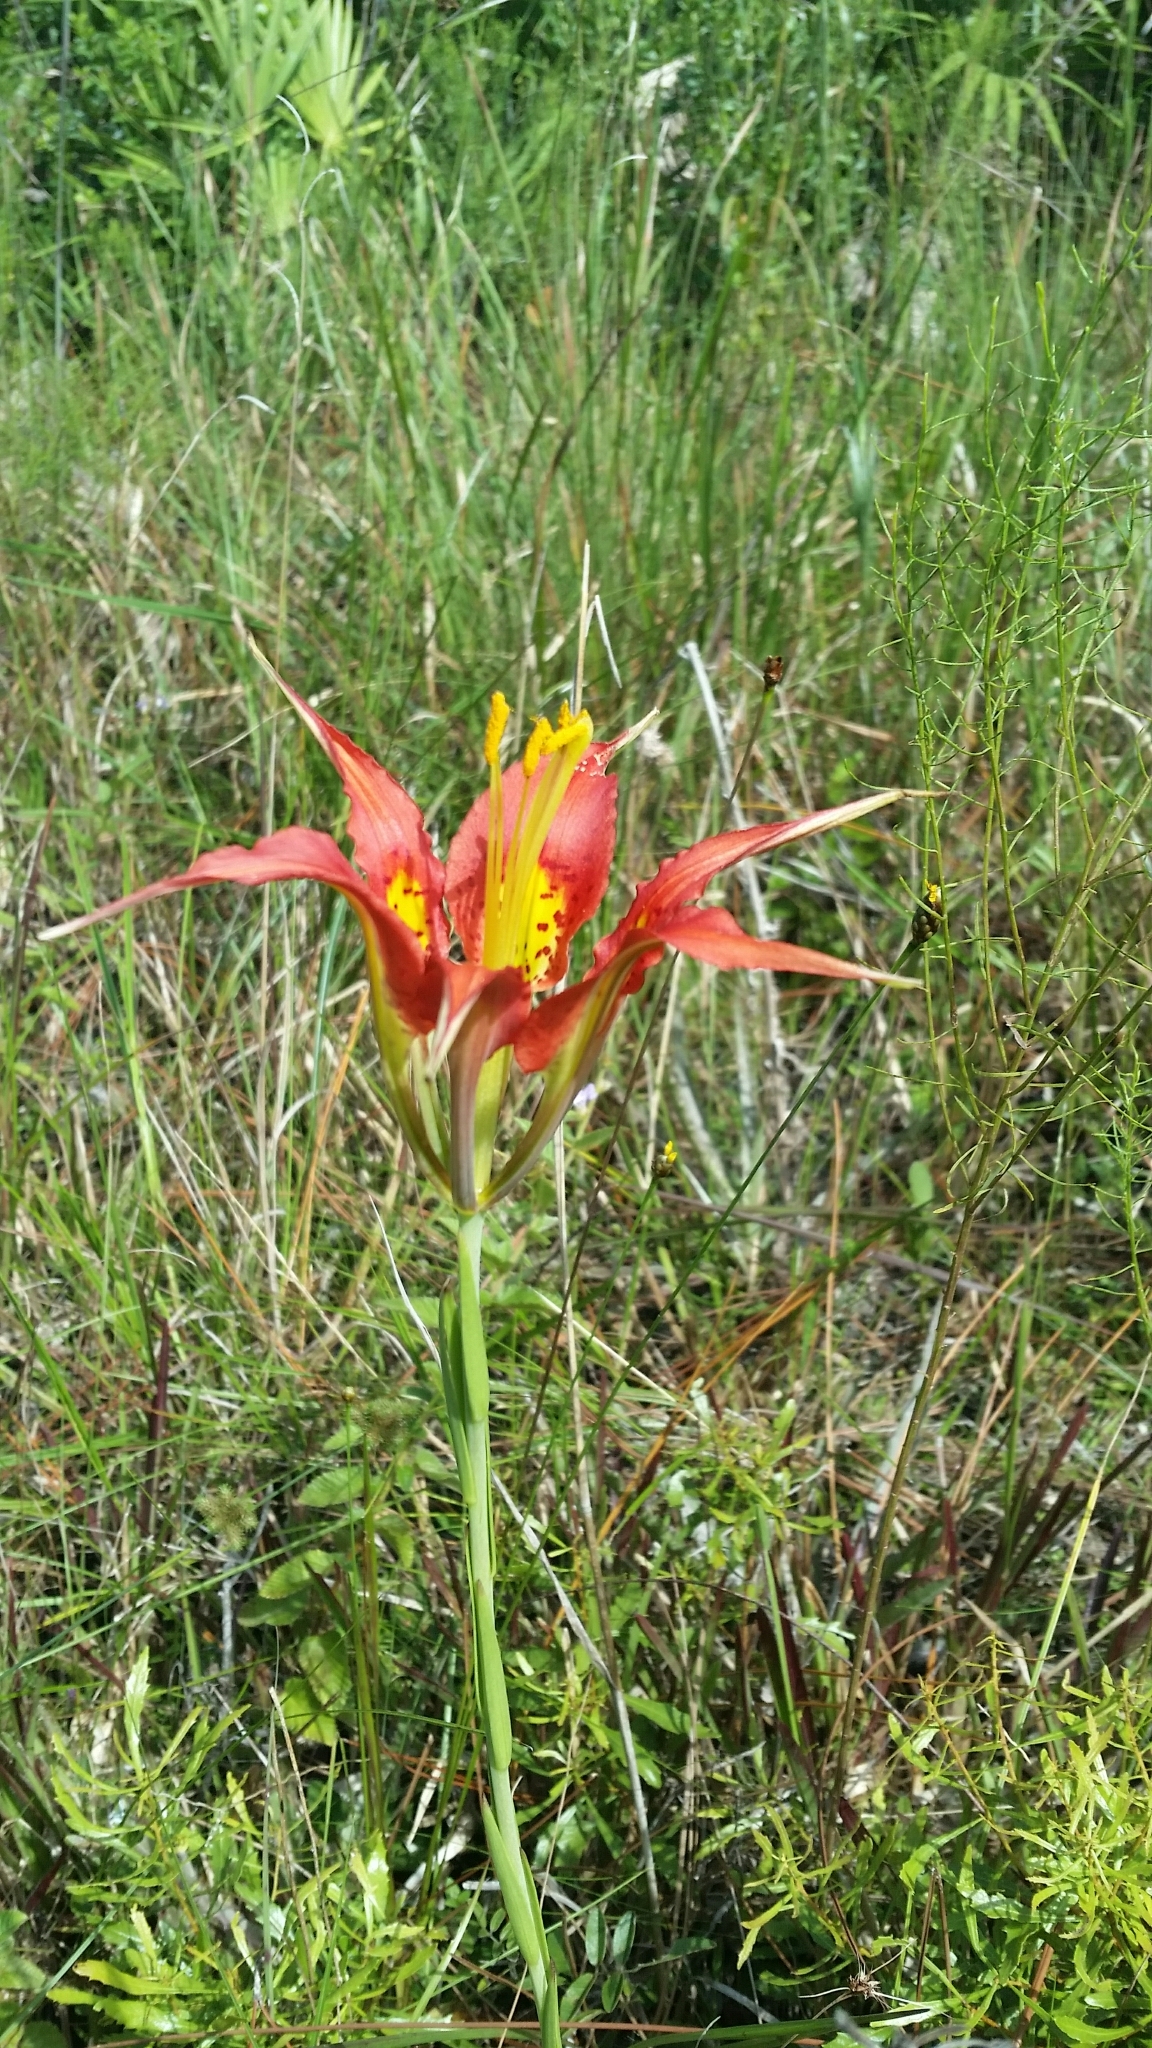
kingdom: Plantae
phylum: Tracheophyta
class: Liliopsida
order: Liliales
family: Liliaceae
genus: Lilium
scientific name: Lilium catesbaei
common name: Catesby's lily
